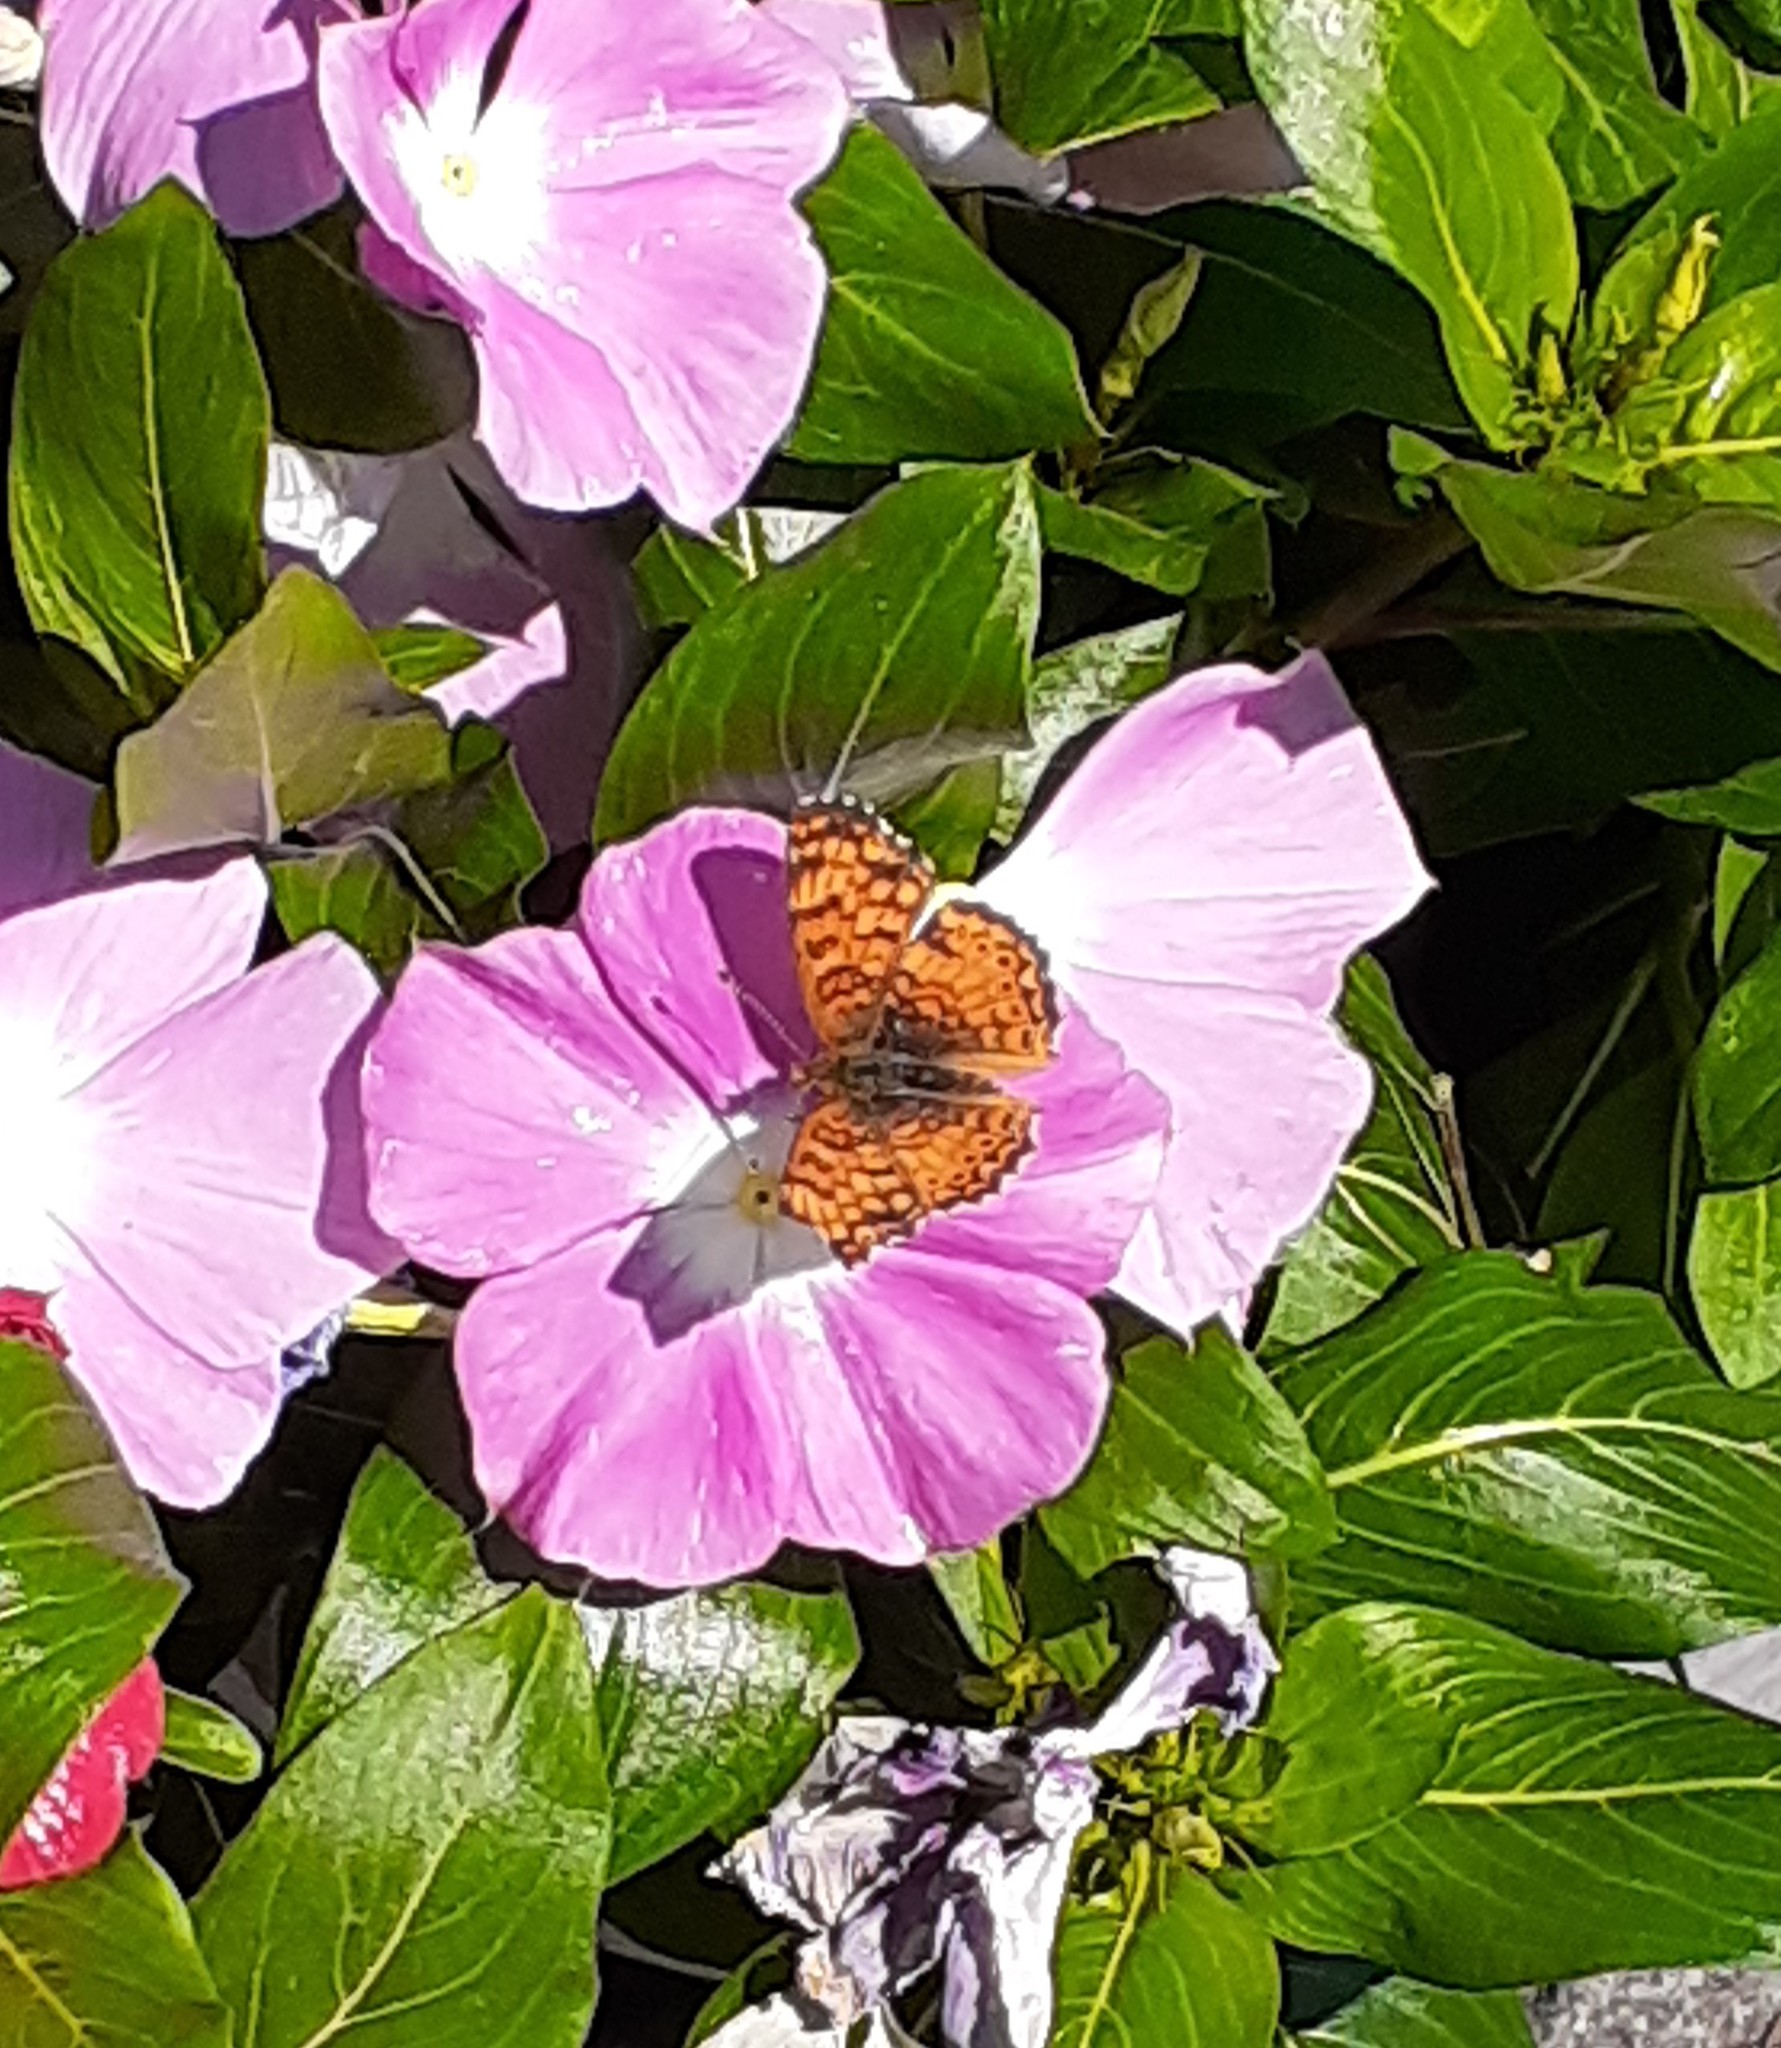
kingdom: Animalia
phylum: Arthropoda
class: Insecta
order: Lepidoptera
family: Nymphalidae
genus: Eresia
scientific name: Eresia aveyrona
